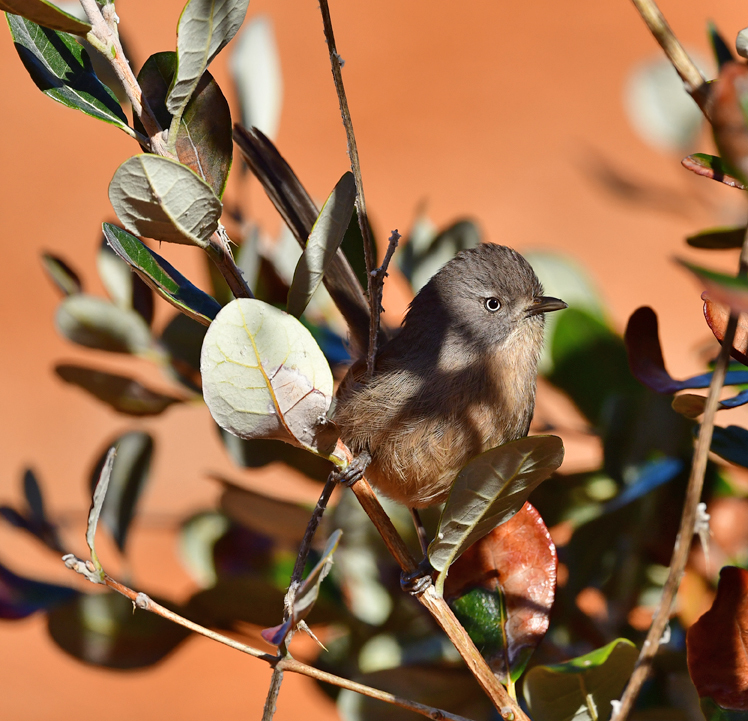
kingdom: Animalia
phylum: Chordata
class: Aves
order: Passeriformes
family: Sylviidae
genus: Chamaea
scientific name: Chamaea fasciata
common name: Wrentit
